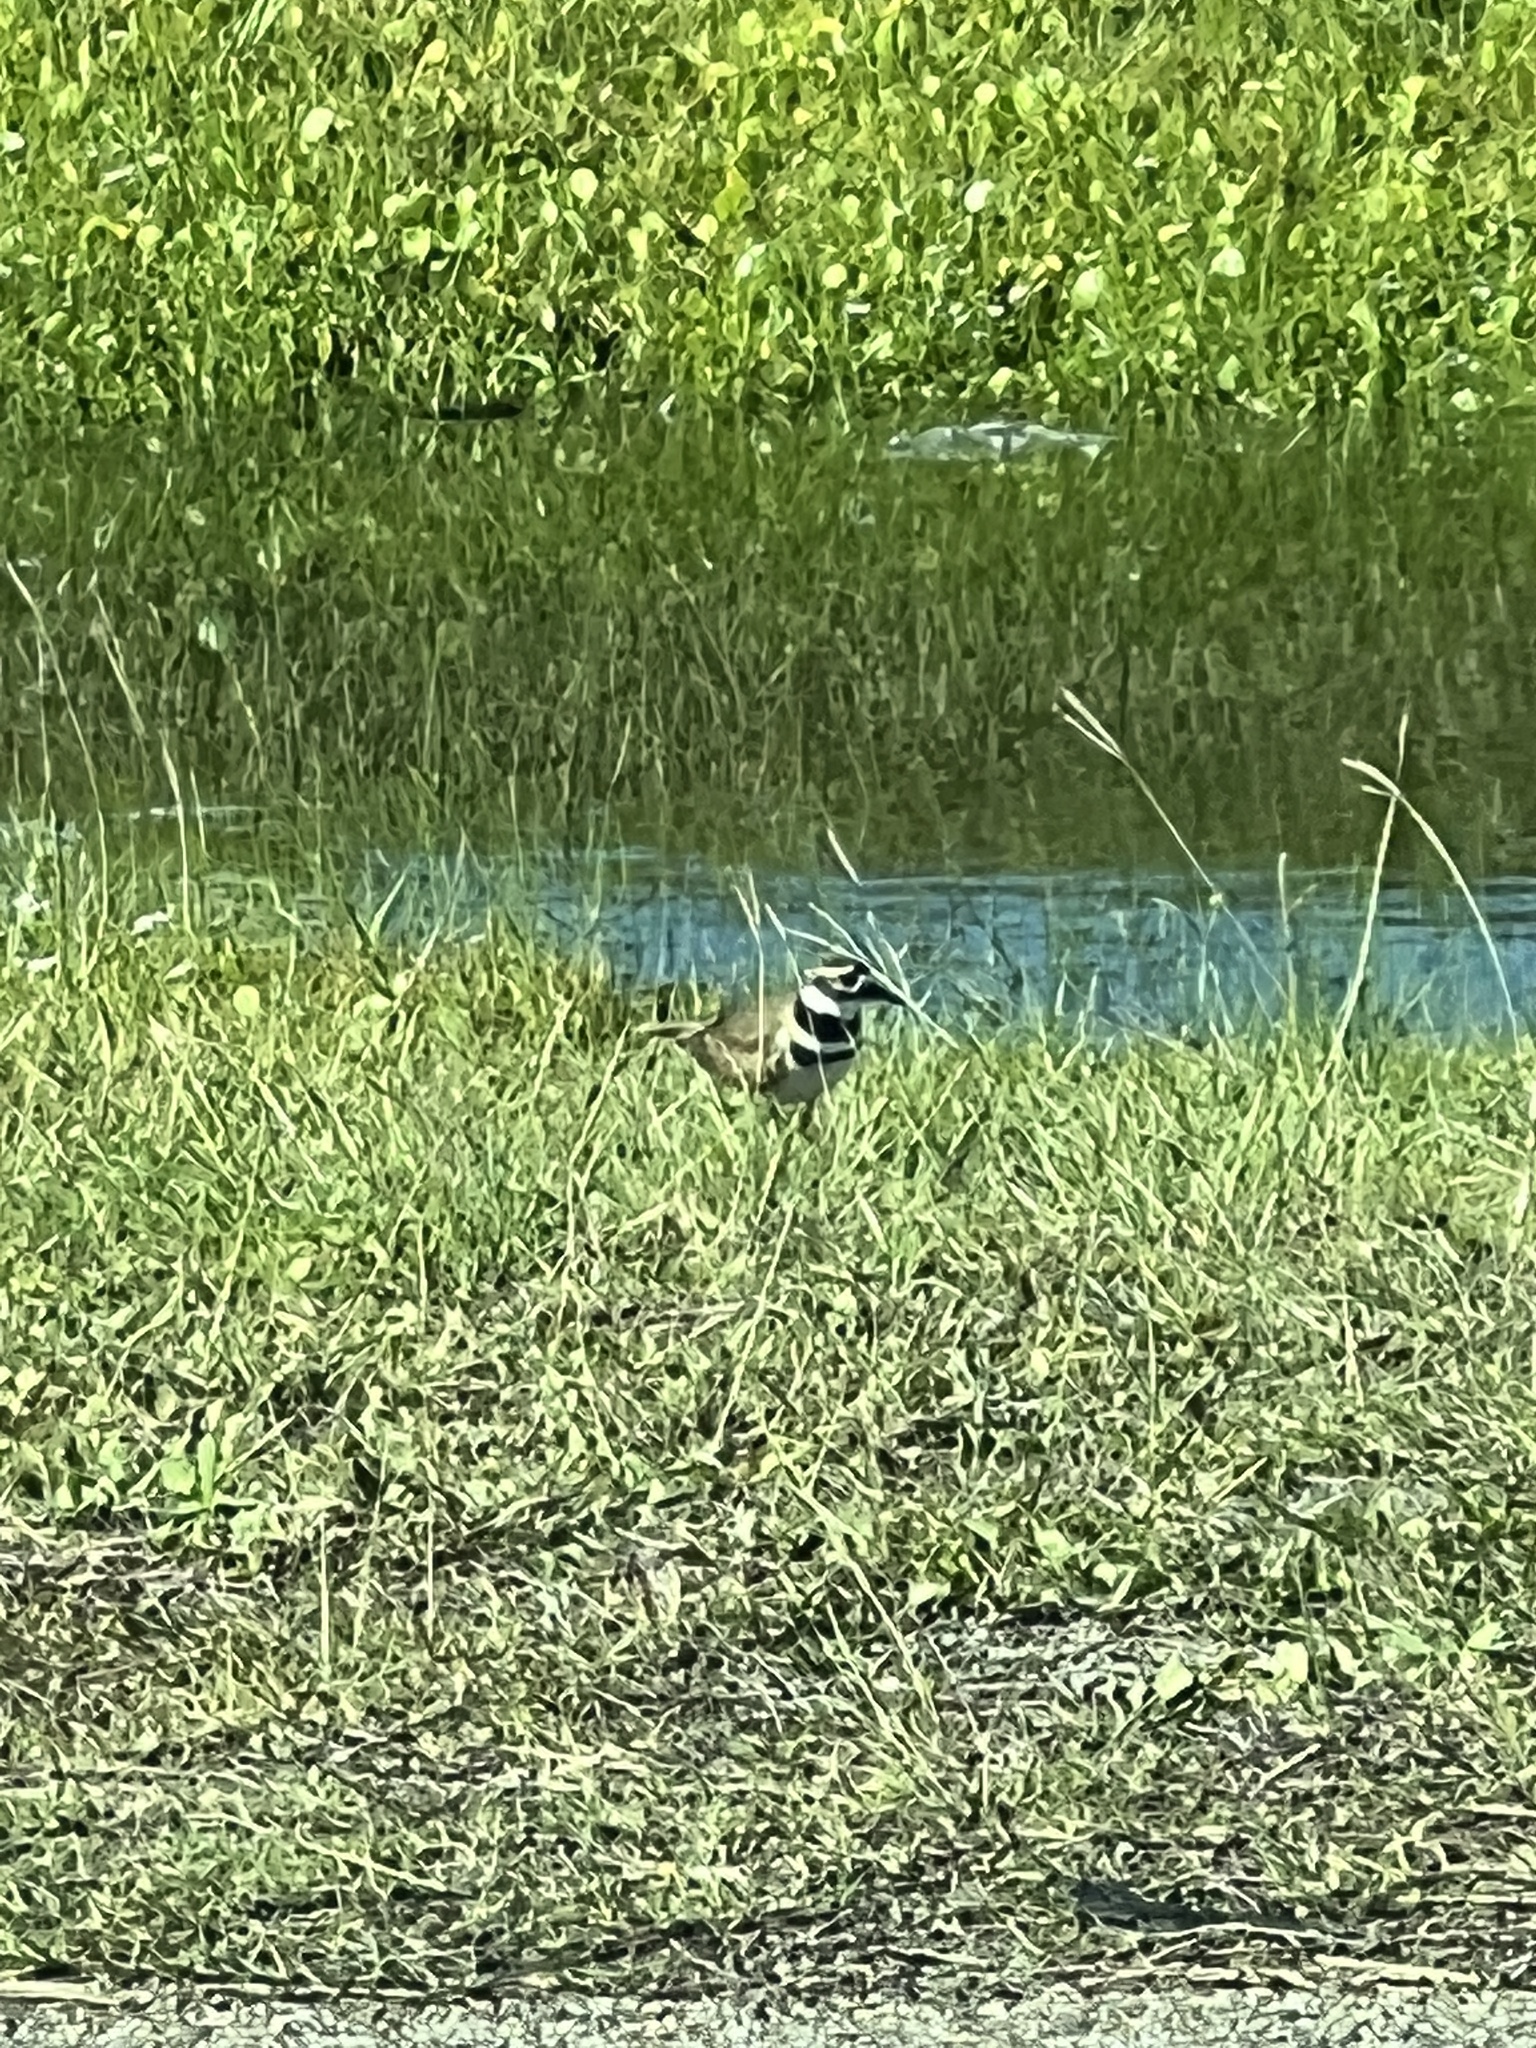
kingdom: Animalia
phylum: Chordata
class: Aves
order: Charadriiformes
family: Charadriidae
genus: Charadrius
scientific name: Charadrius vociferus
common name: Killdeer
